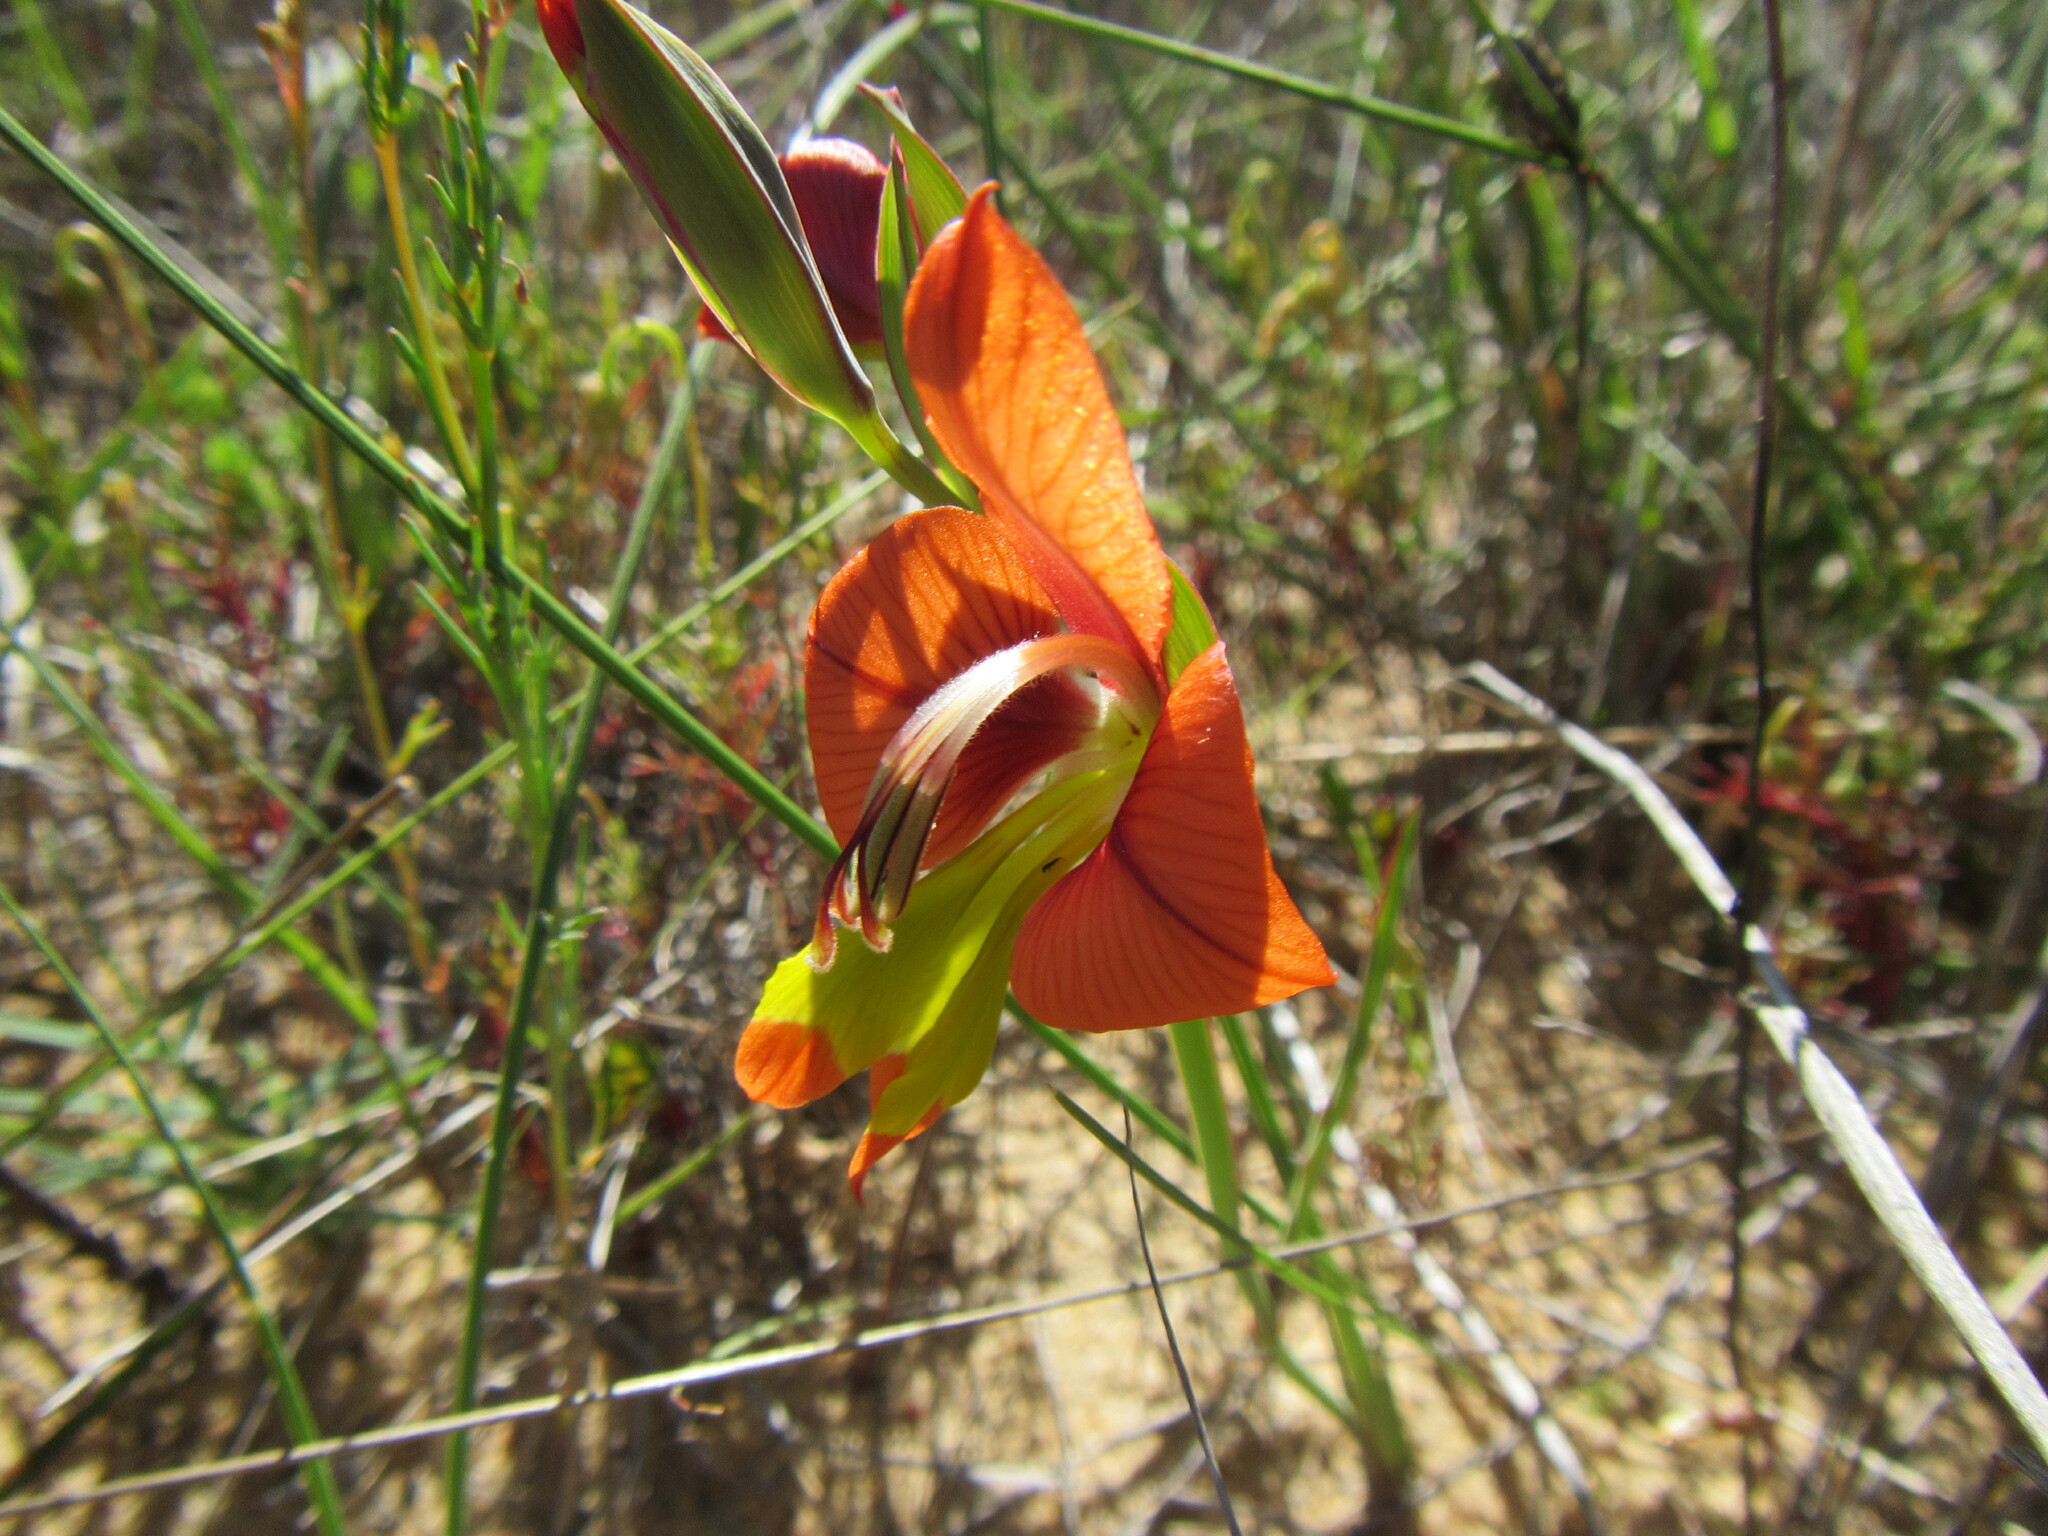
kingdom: Plantae
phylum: Tracheophyta
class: Liliopsida
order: Asparagales
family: Iridaceae
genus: Gladiolus
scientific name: Gladiolus alatus
